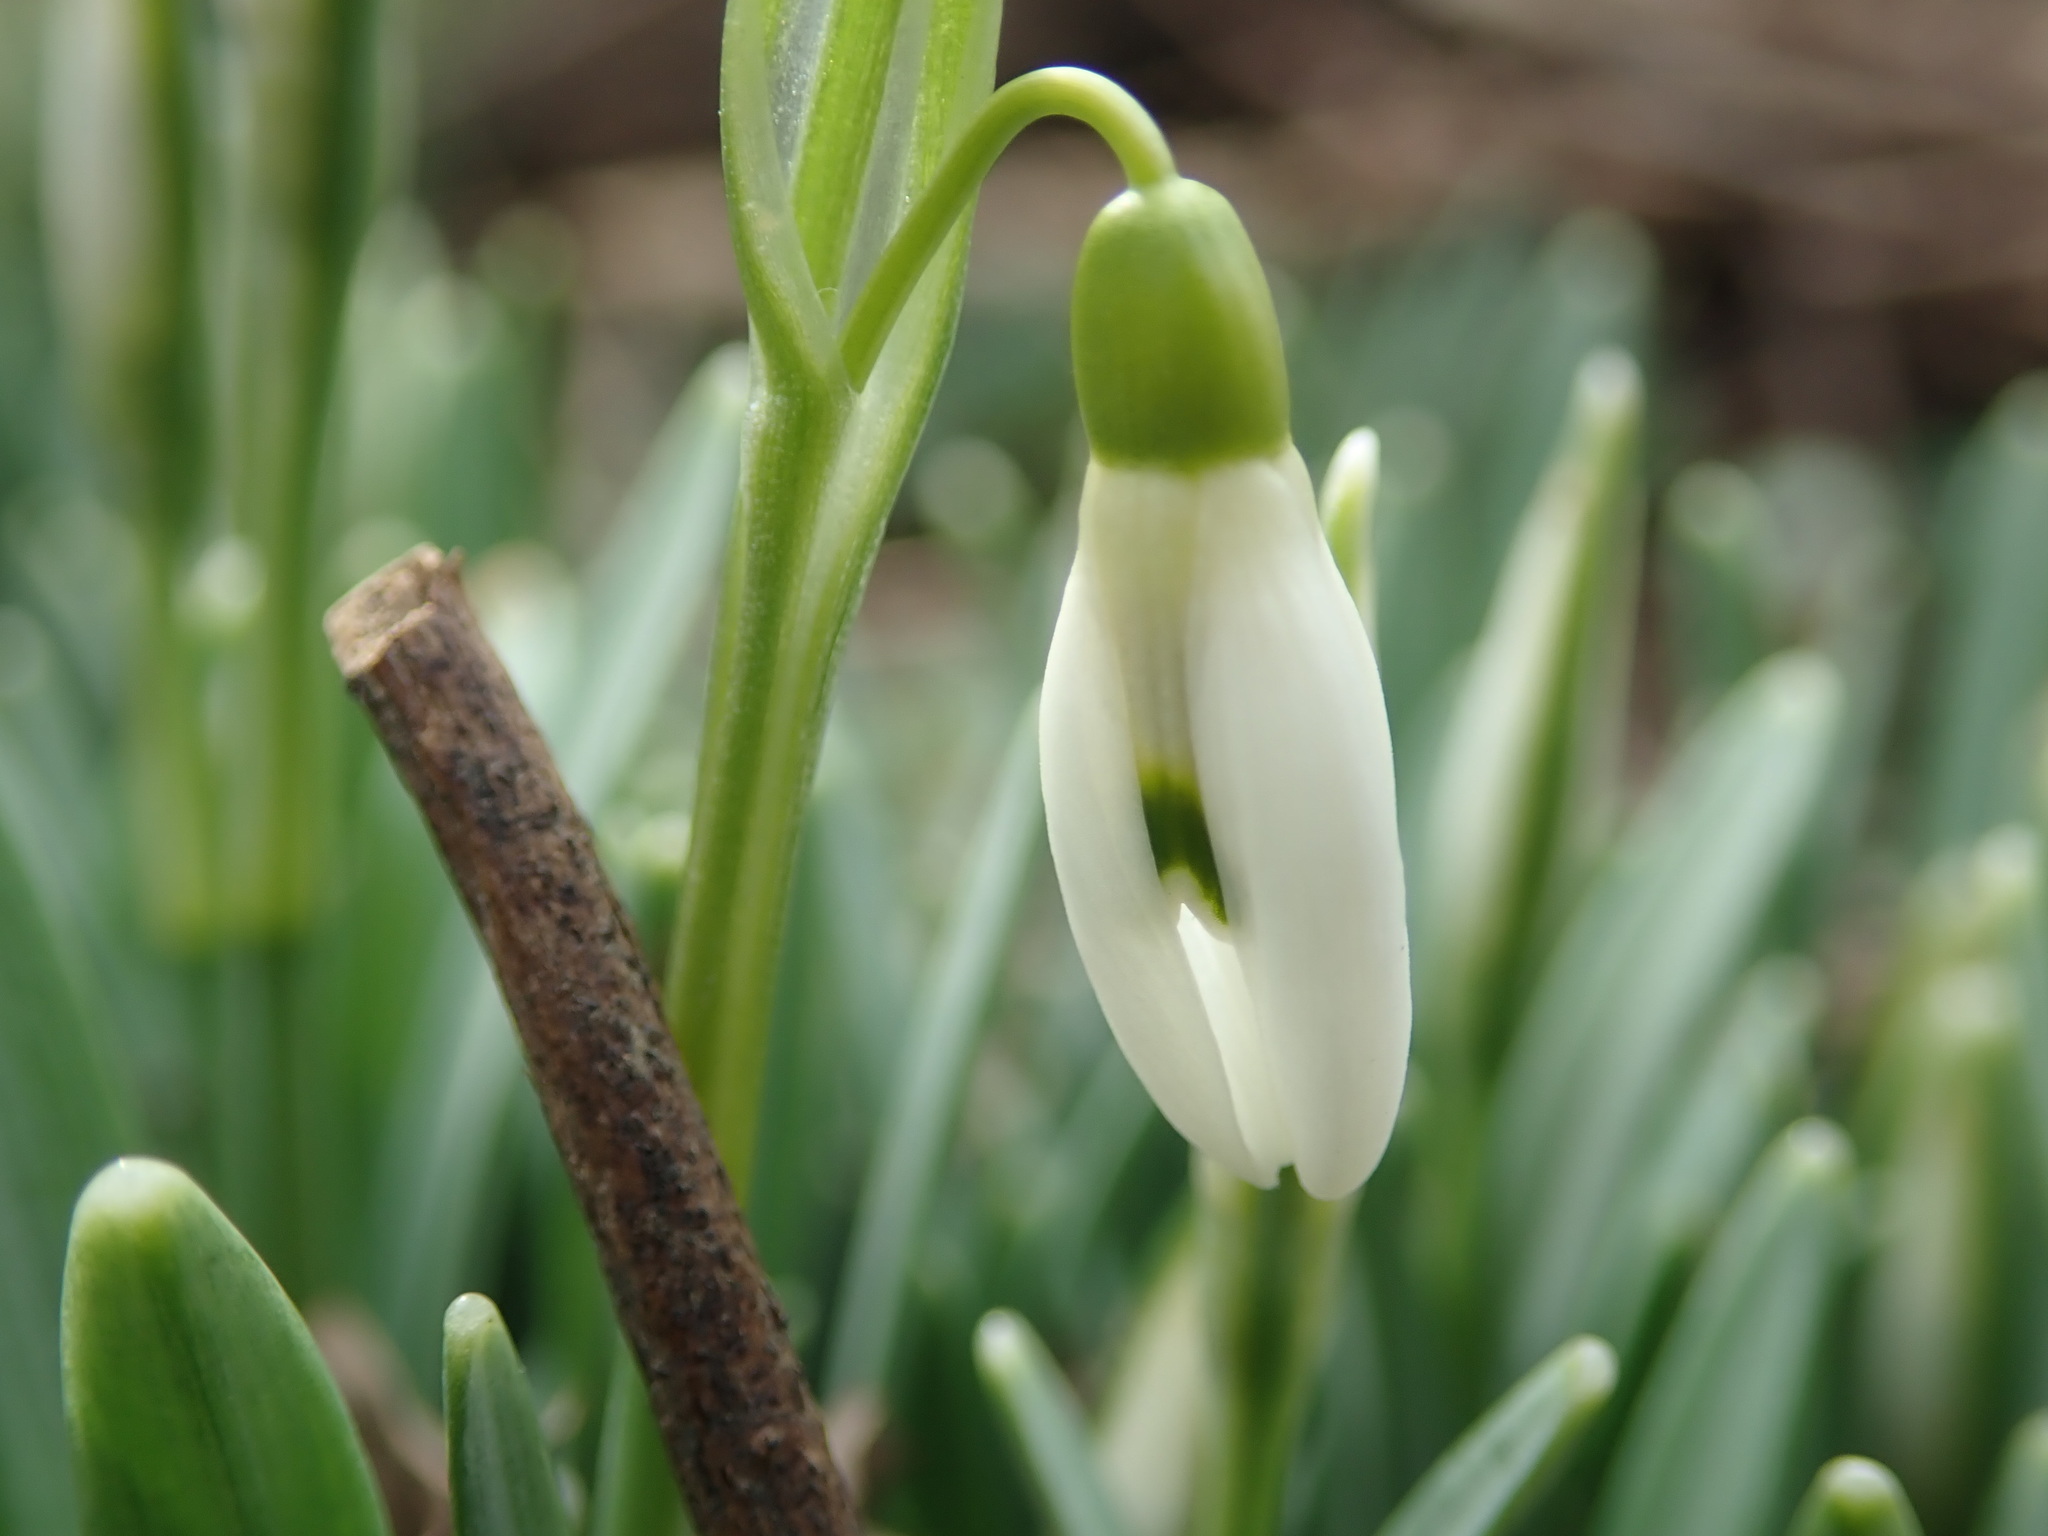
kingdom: Plantae
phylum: Tracheophyta
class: Liliopsida
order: Asparagales
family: Amaryllidaceae
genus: Galanthus
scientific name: Galanthus nivalis
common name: Snowdrop
